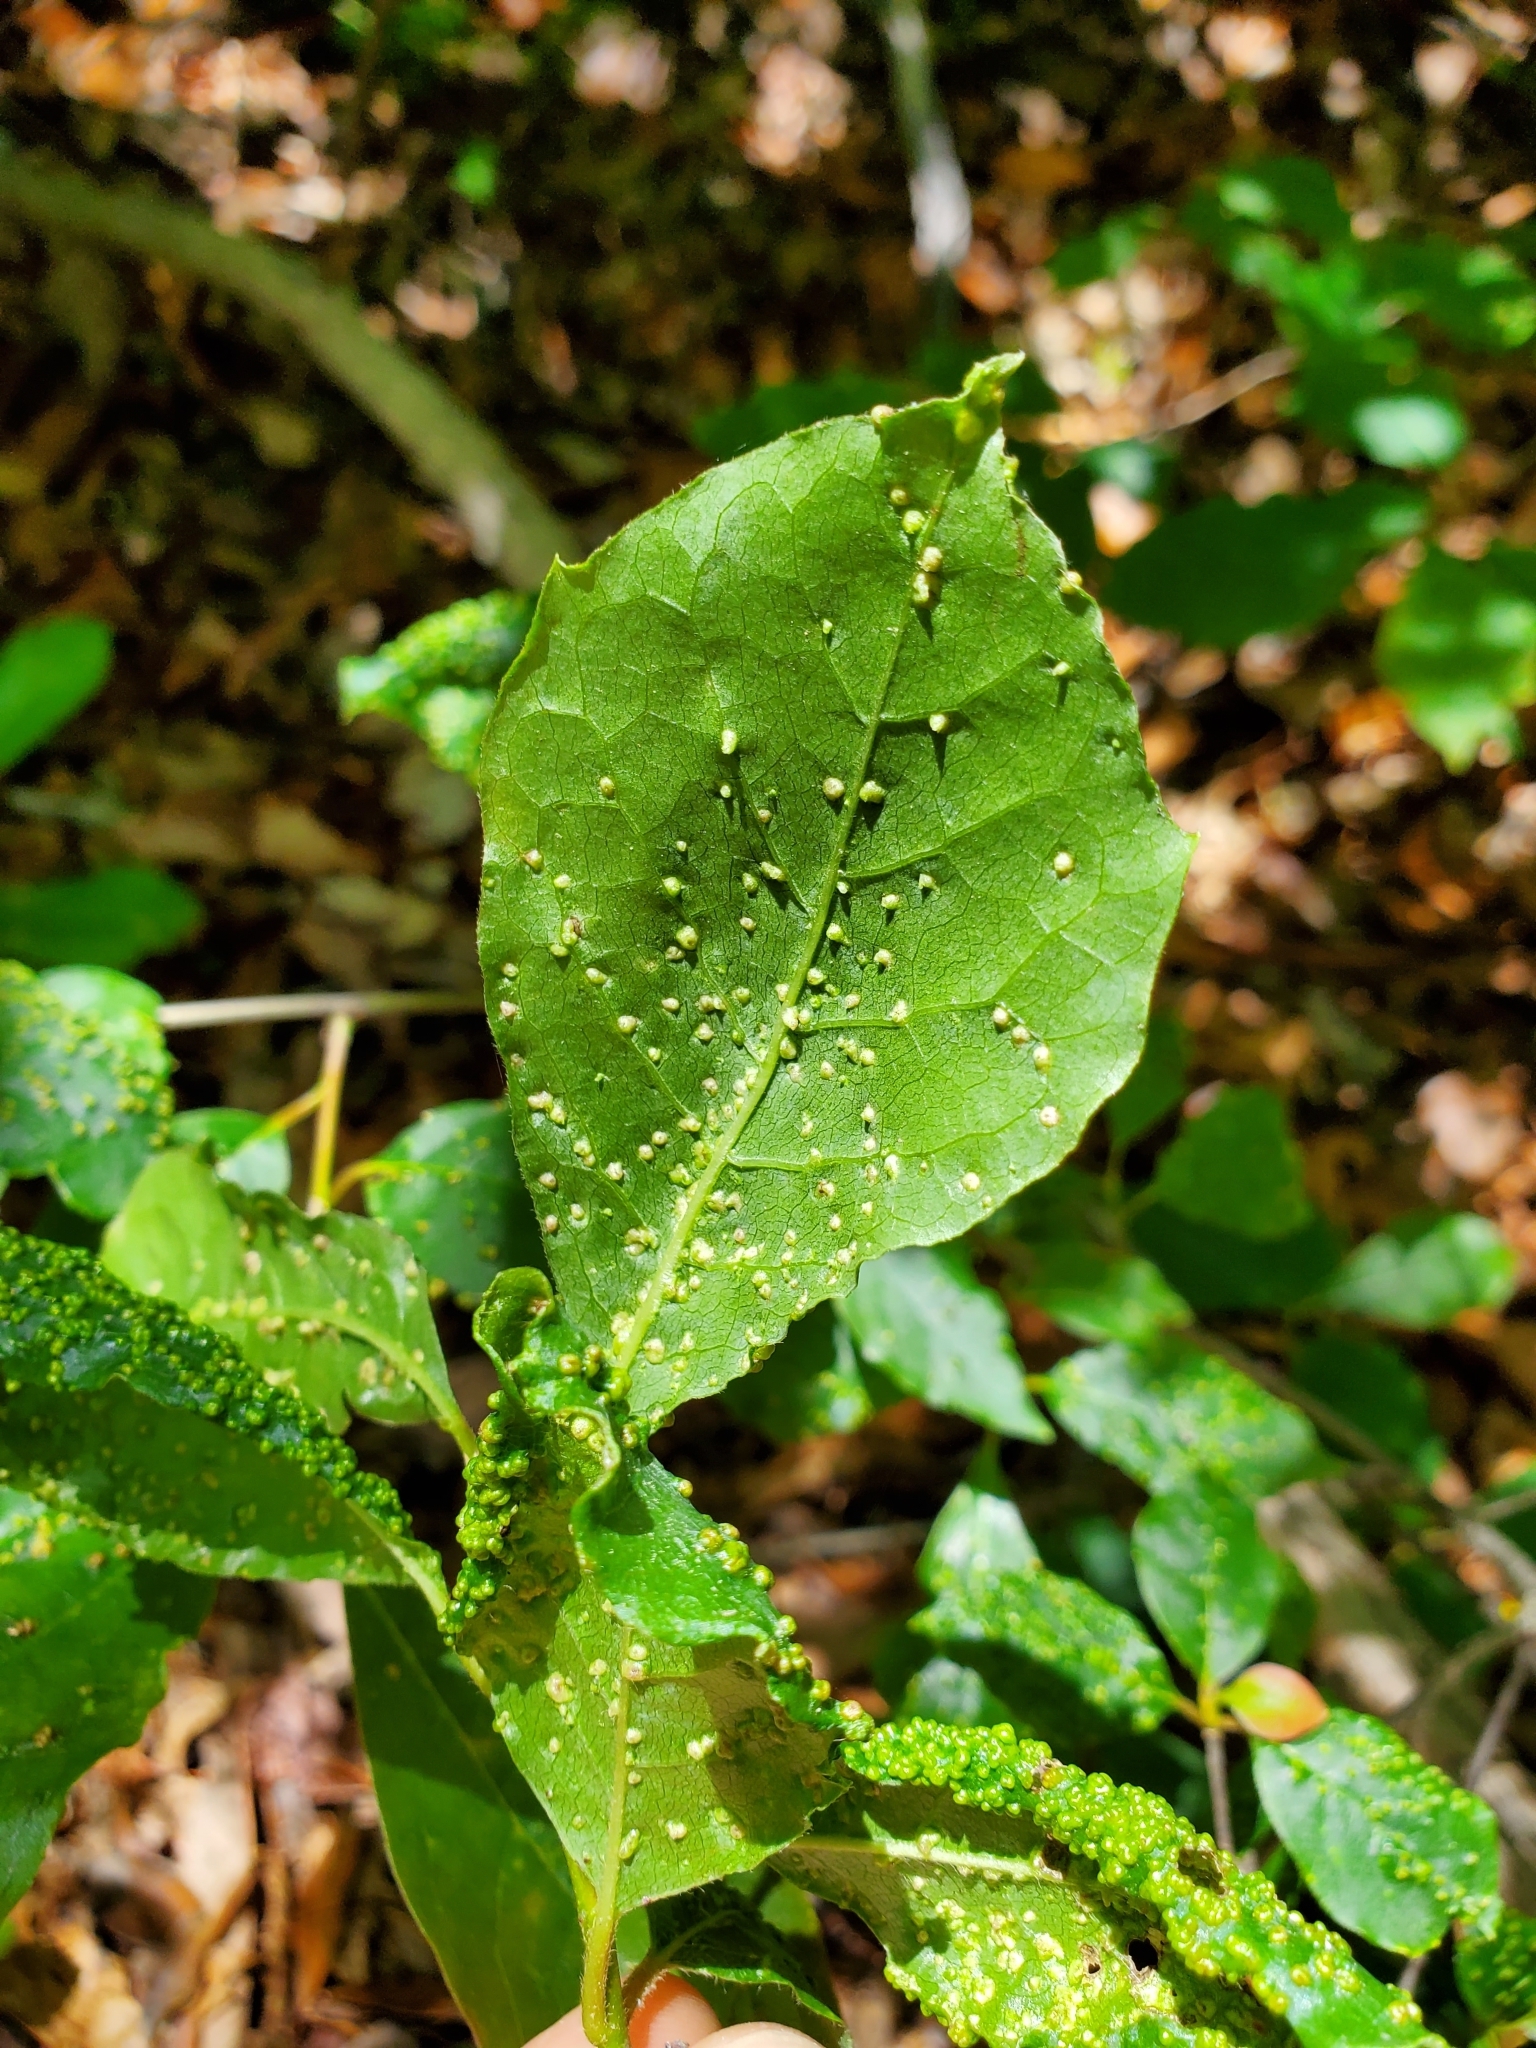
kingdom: Animalia
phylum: Arthropoda
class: Arachnida
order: Trombidiformes
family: Eriophyidae
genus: Aceria
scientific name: Aceria
